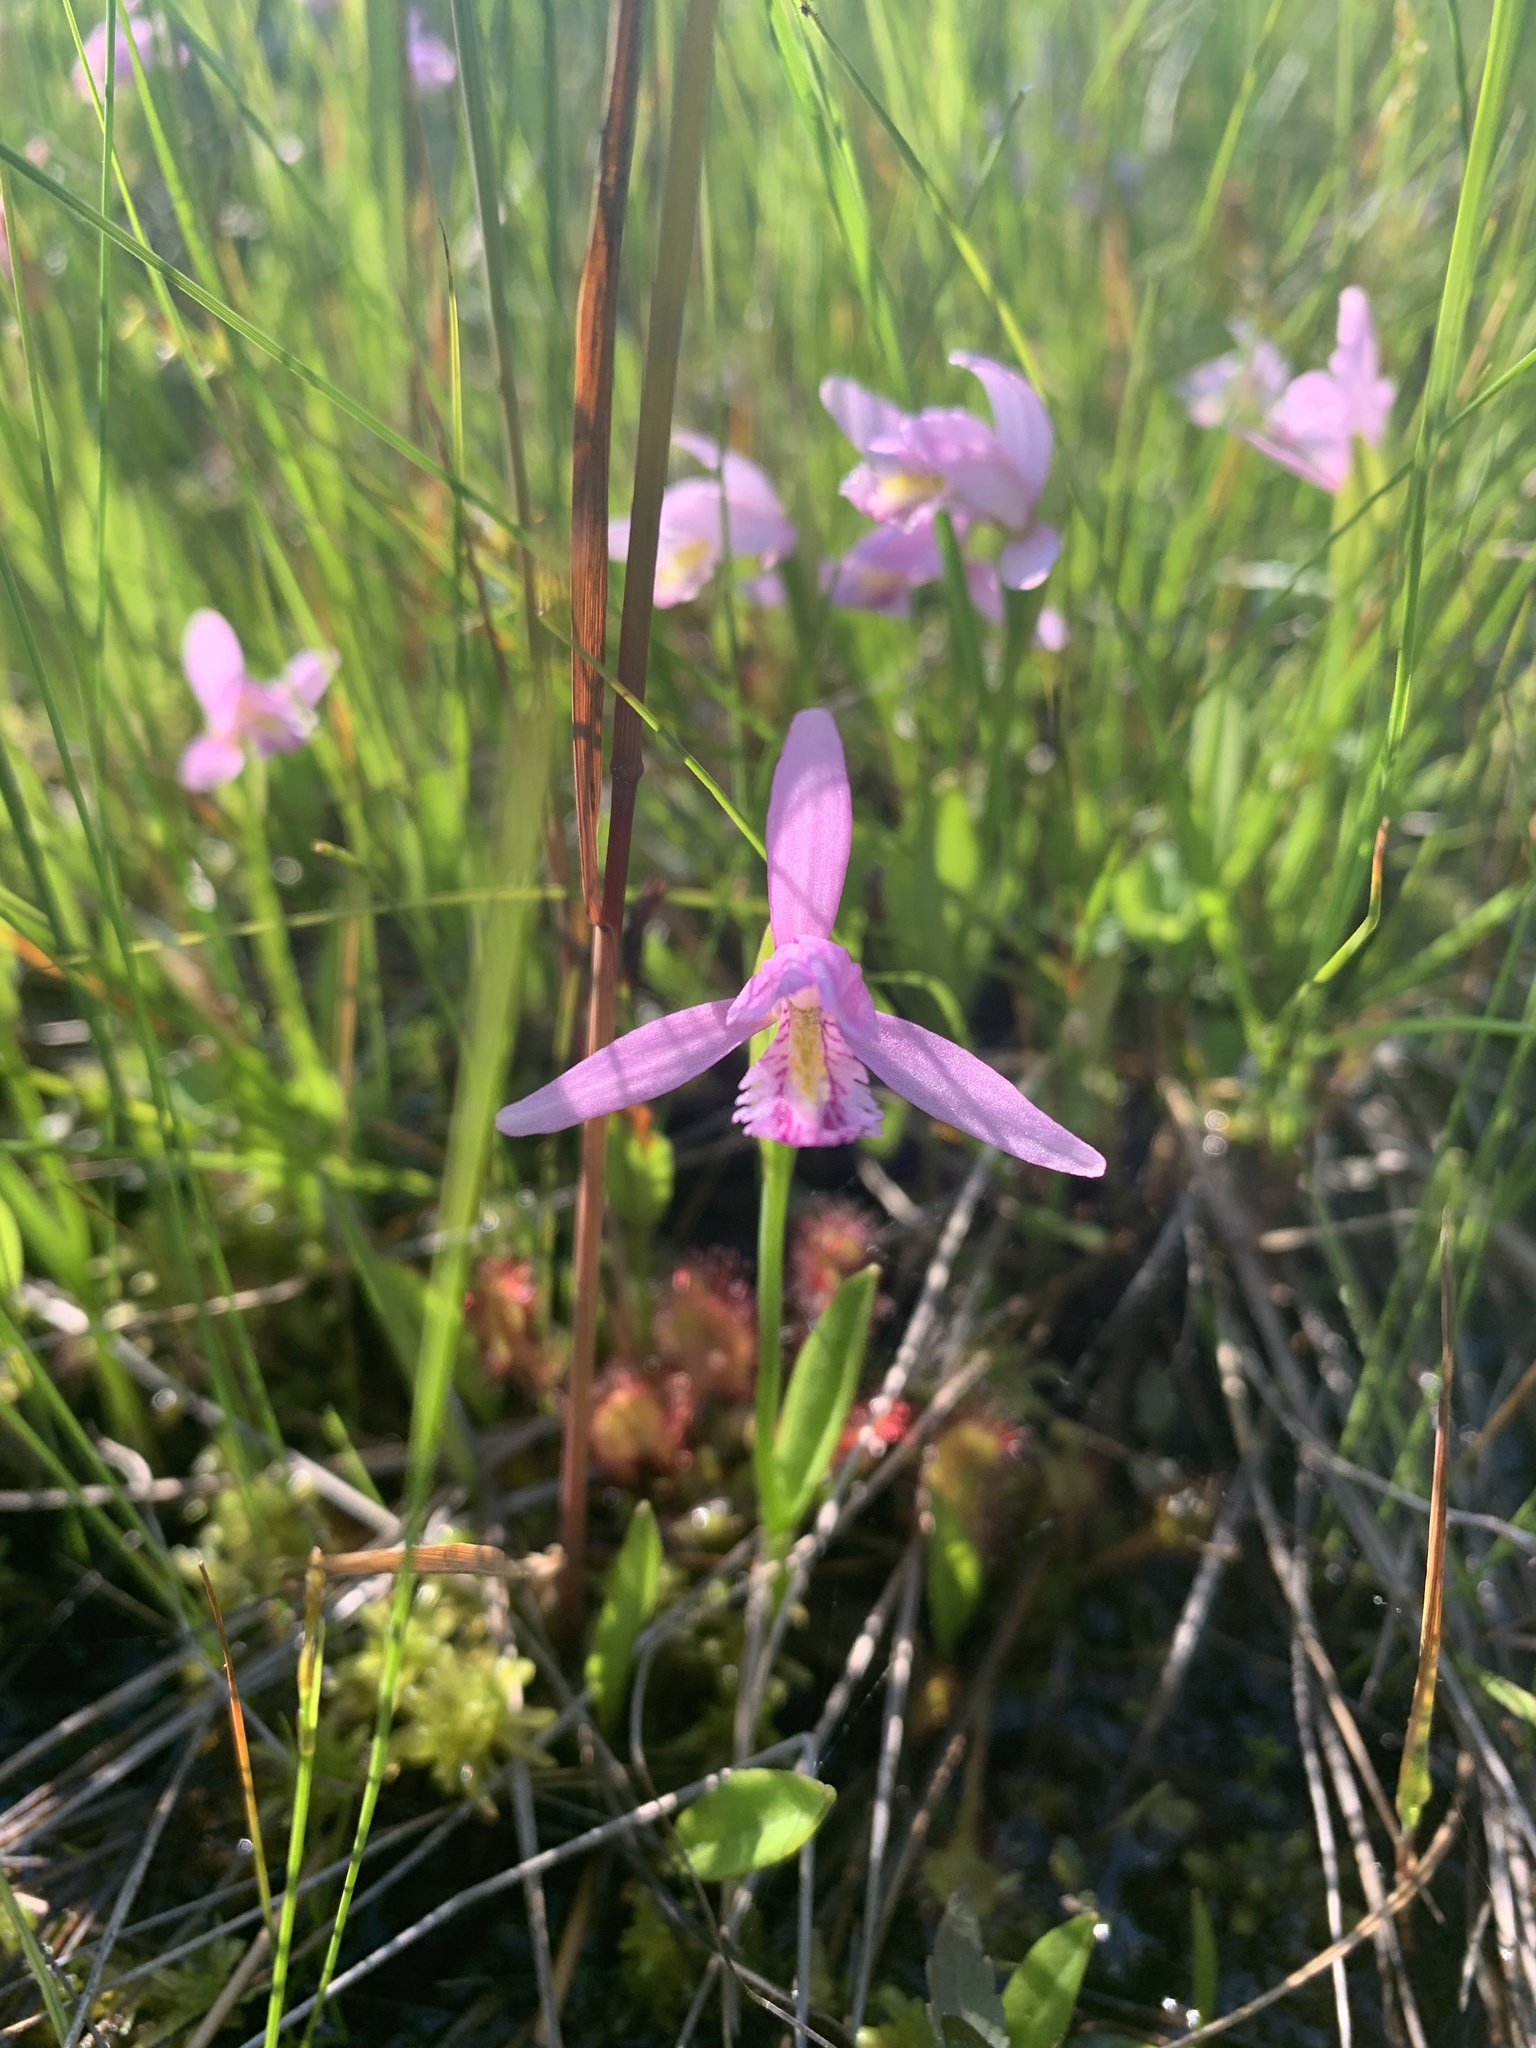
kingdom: Plantae
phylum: Tracheophyta
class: Liliopsida
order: Asparagales
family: Orchidaceae
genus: Pogonia
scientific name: Pogonia ophioglossoides
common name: Rose pogonia
